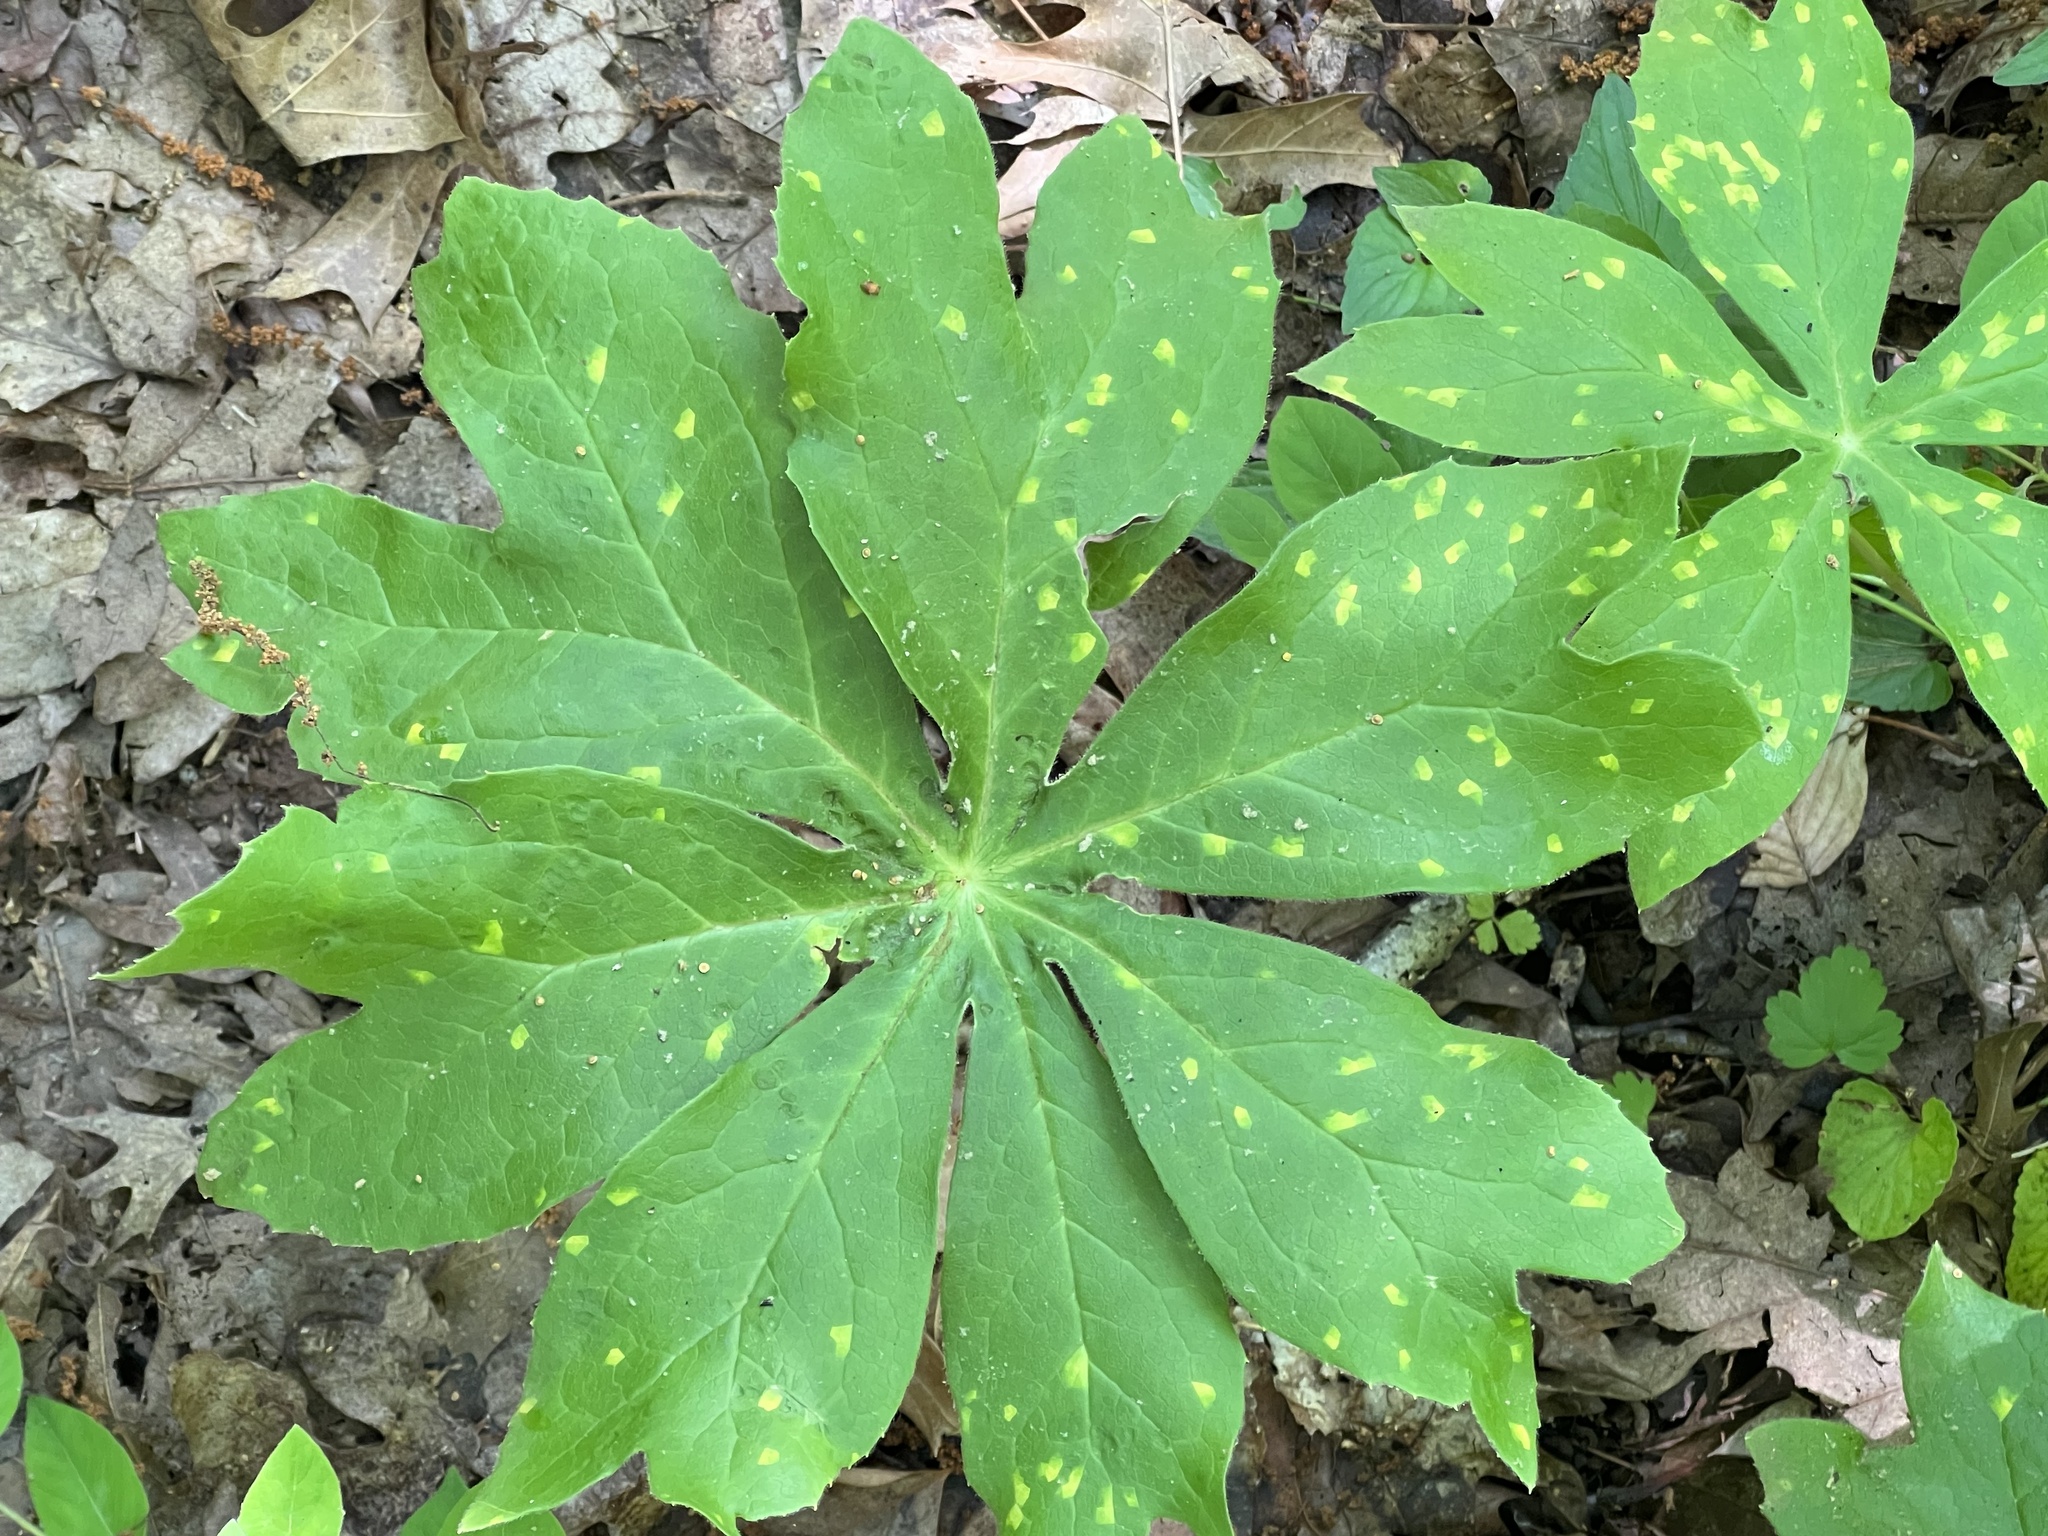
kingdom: Fungi
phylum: Basidiomycota
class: Pucciniomycetes
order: Pucciniales
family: Pucciniaceae
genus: Puccinia
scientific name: Puccinia podophylli
